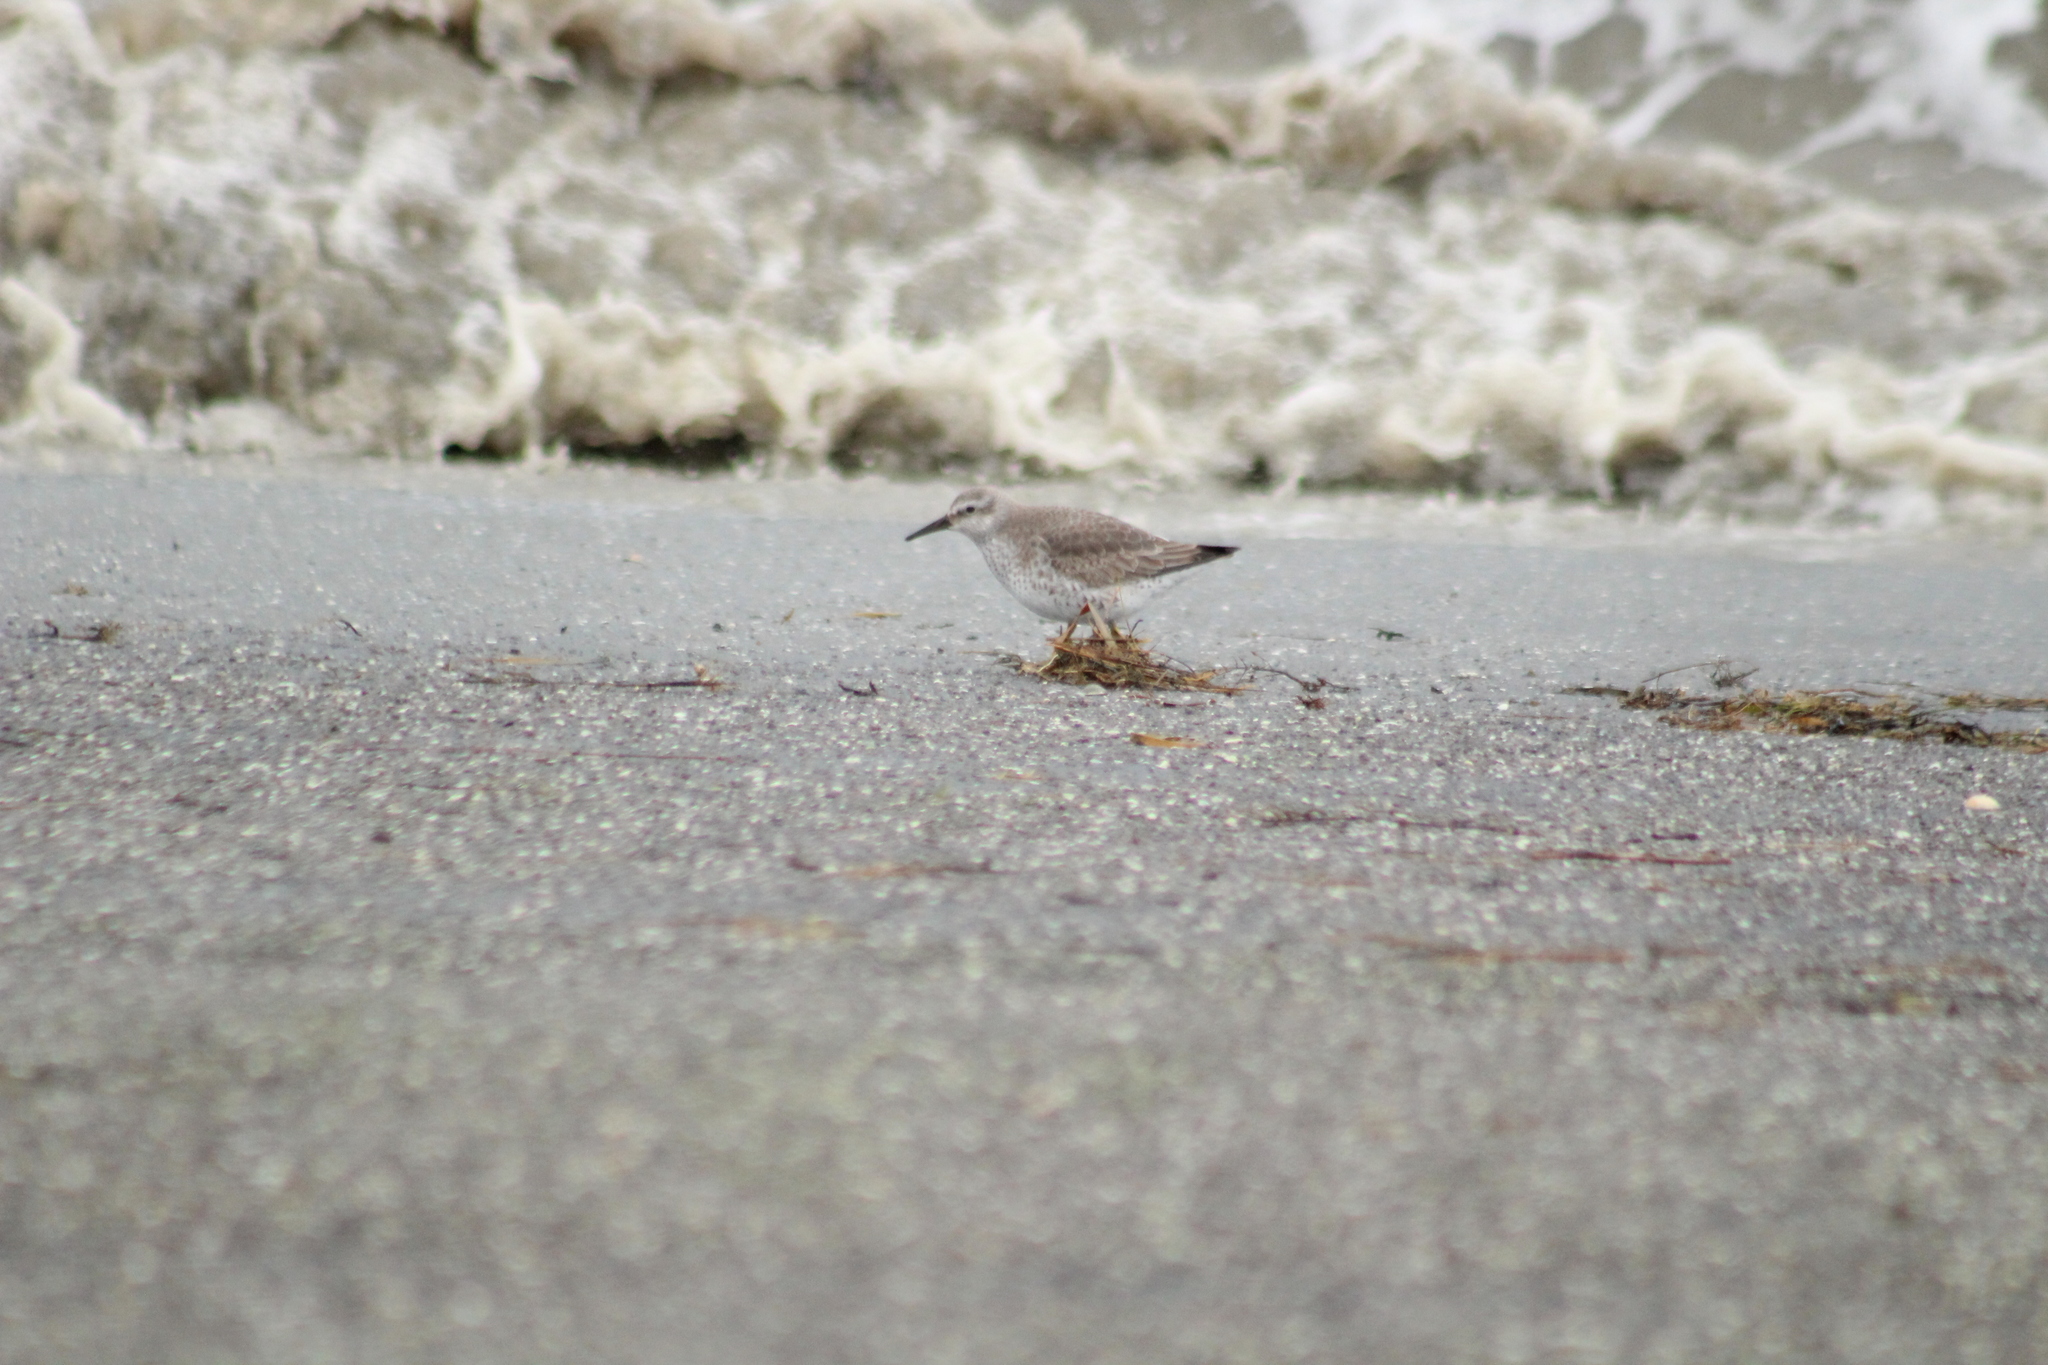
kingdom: Animalia
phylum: Chordata
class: Aves
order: Charadriiformes
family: Scolopacidae
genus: Calidris
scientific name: Calidris canutus
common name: Red knot
